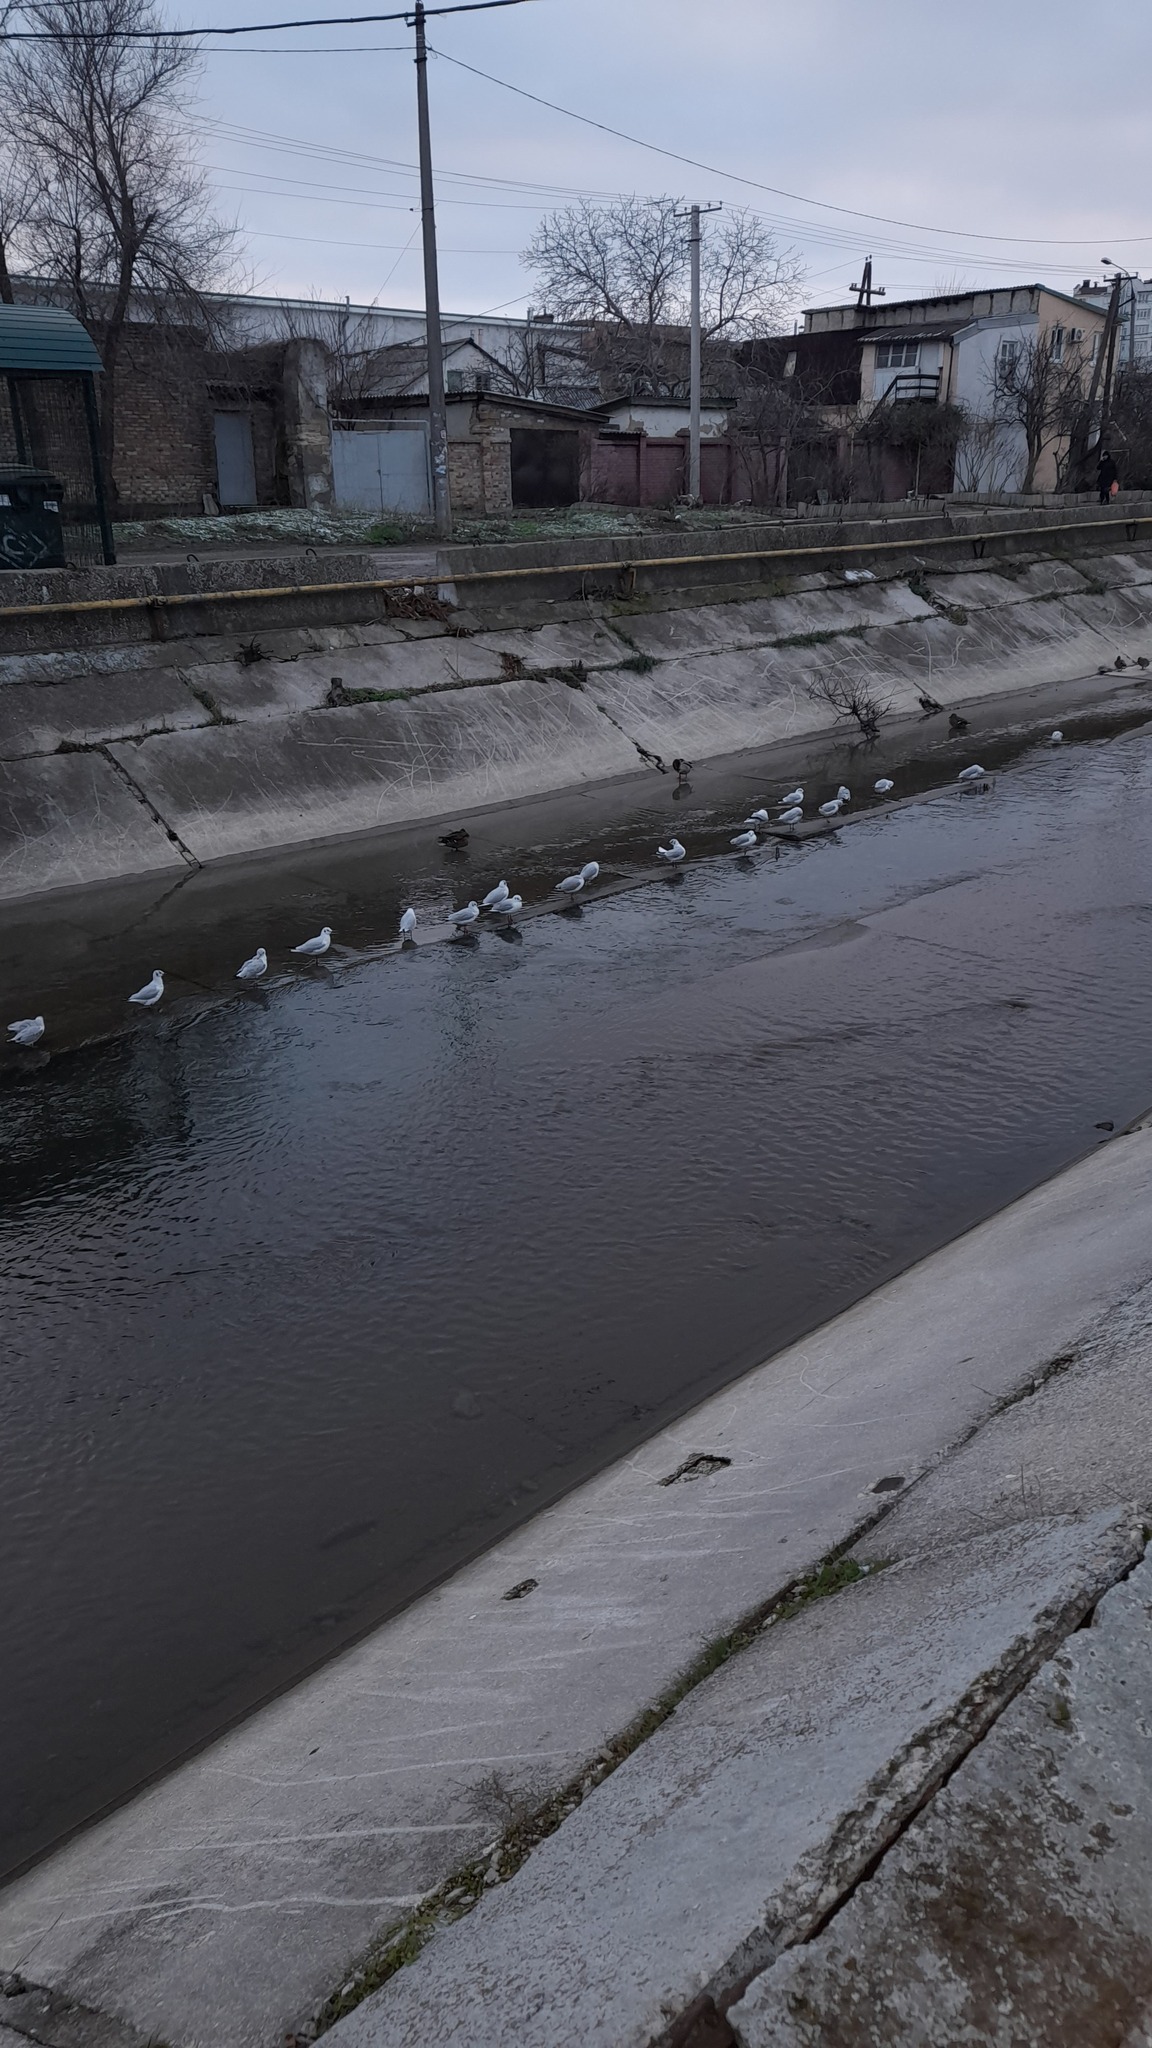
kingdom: Animalia
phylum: Chordata
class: Aves
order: Charadriiformes
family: Laridae
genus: Chroicocephalus
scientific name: Chroicocephalus ridibundus
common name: Black-headed gull
